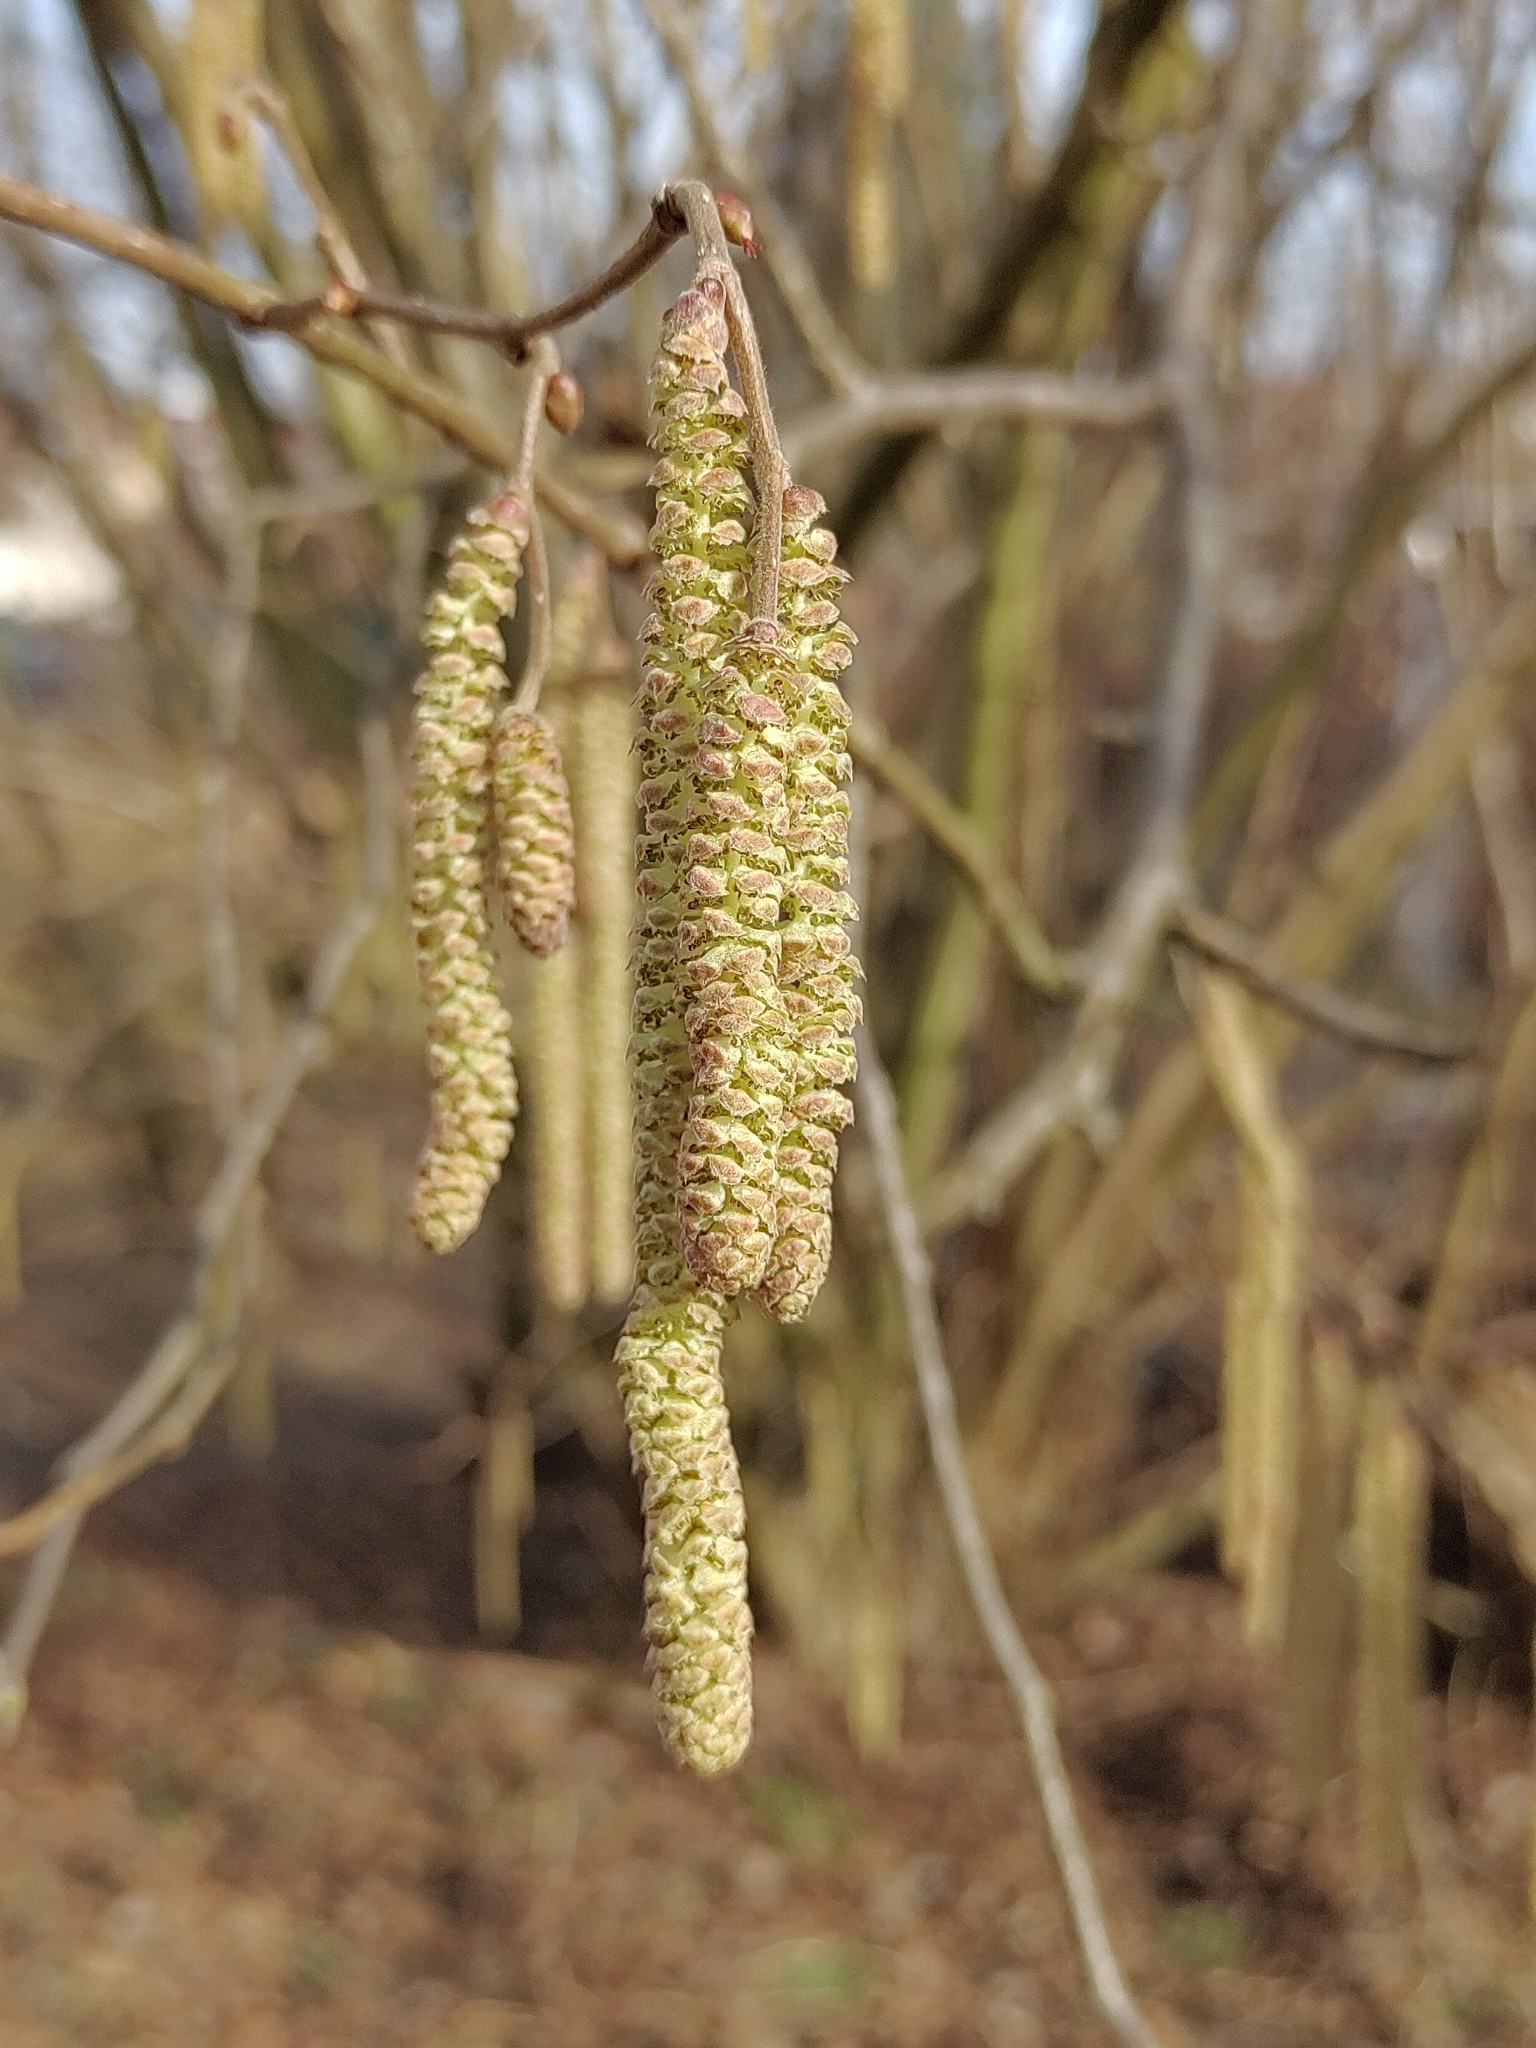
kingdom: Plantae
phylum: Tracheophyta
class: Magnoliopsida
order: Fagales
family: Betulaceae
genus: Corylus
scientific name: Corylus avellana
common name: European hazel
